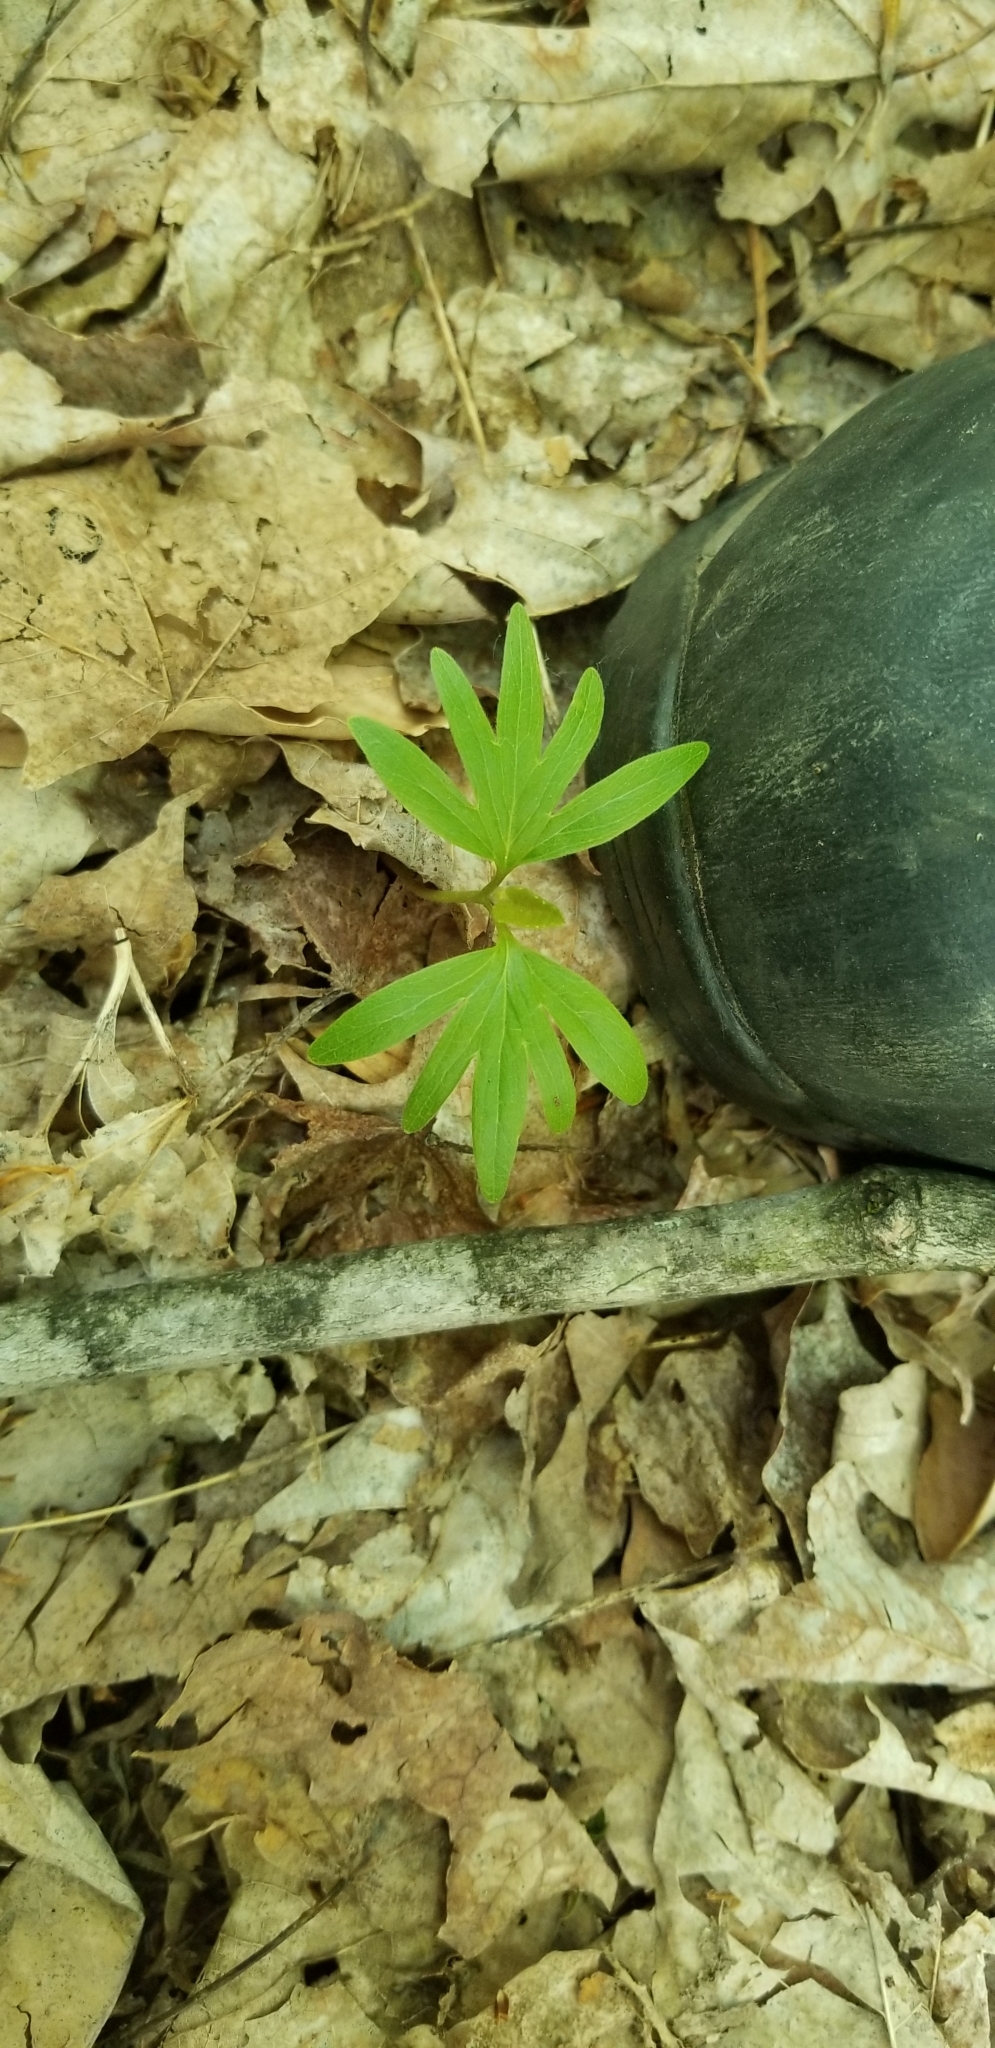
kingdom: Plantae
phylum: Tracheophyta
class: Magnoliopsida
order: Malvales
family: Malvaceae
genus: Tilia
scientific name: Tilia americana
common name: Basswood
